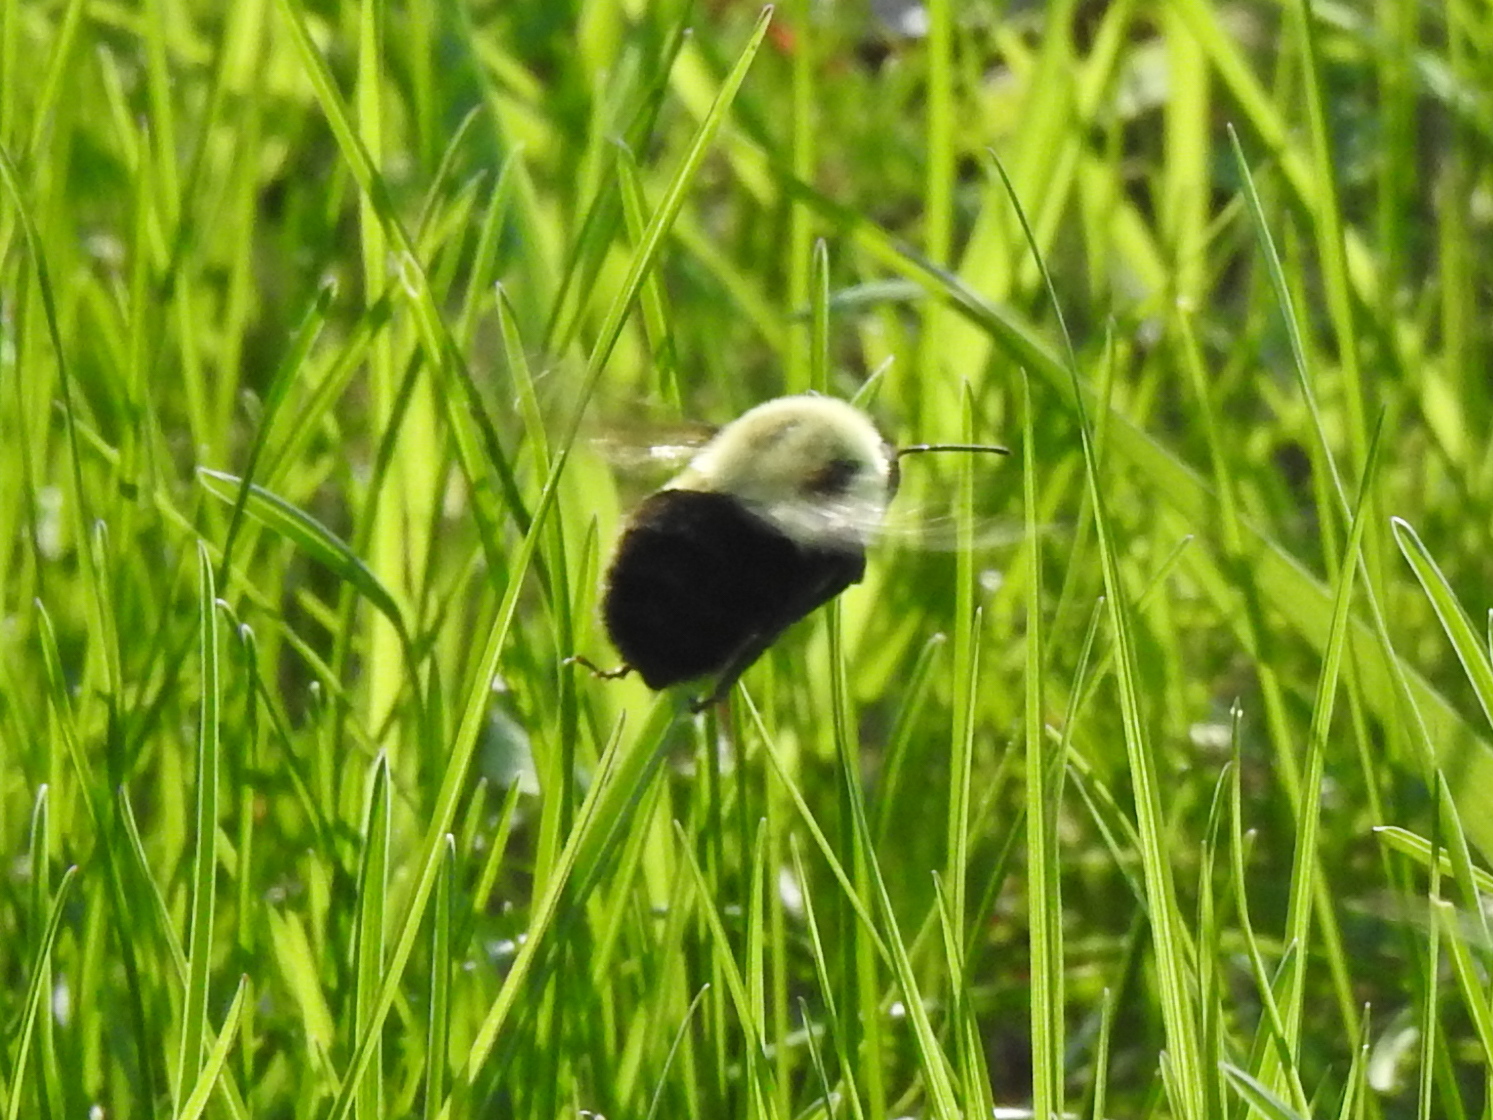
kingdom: Animalia
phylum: Arthropoda
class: Insecta
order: Hymenoptera
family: Apidae
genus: Bombus
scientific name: Bombus impatiens
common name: Common eastern bumble bee
